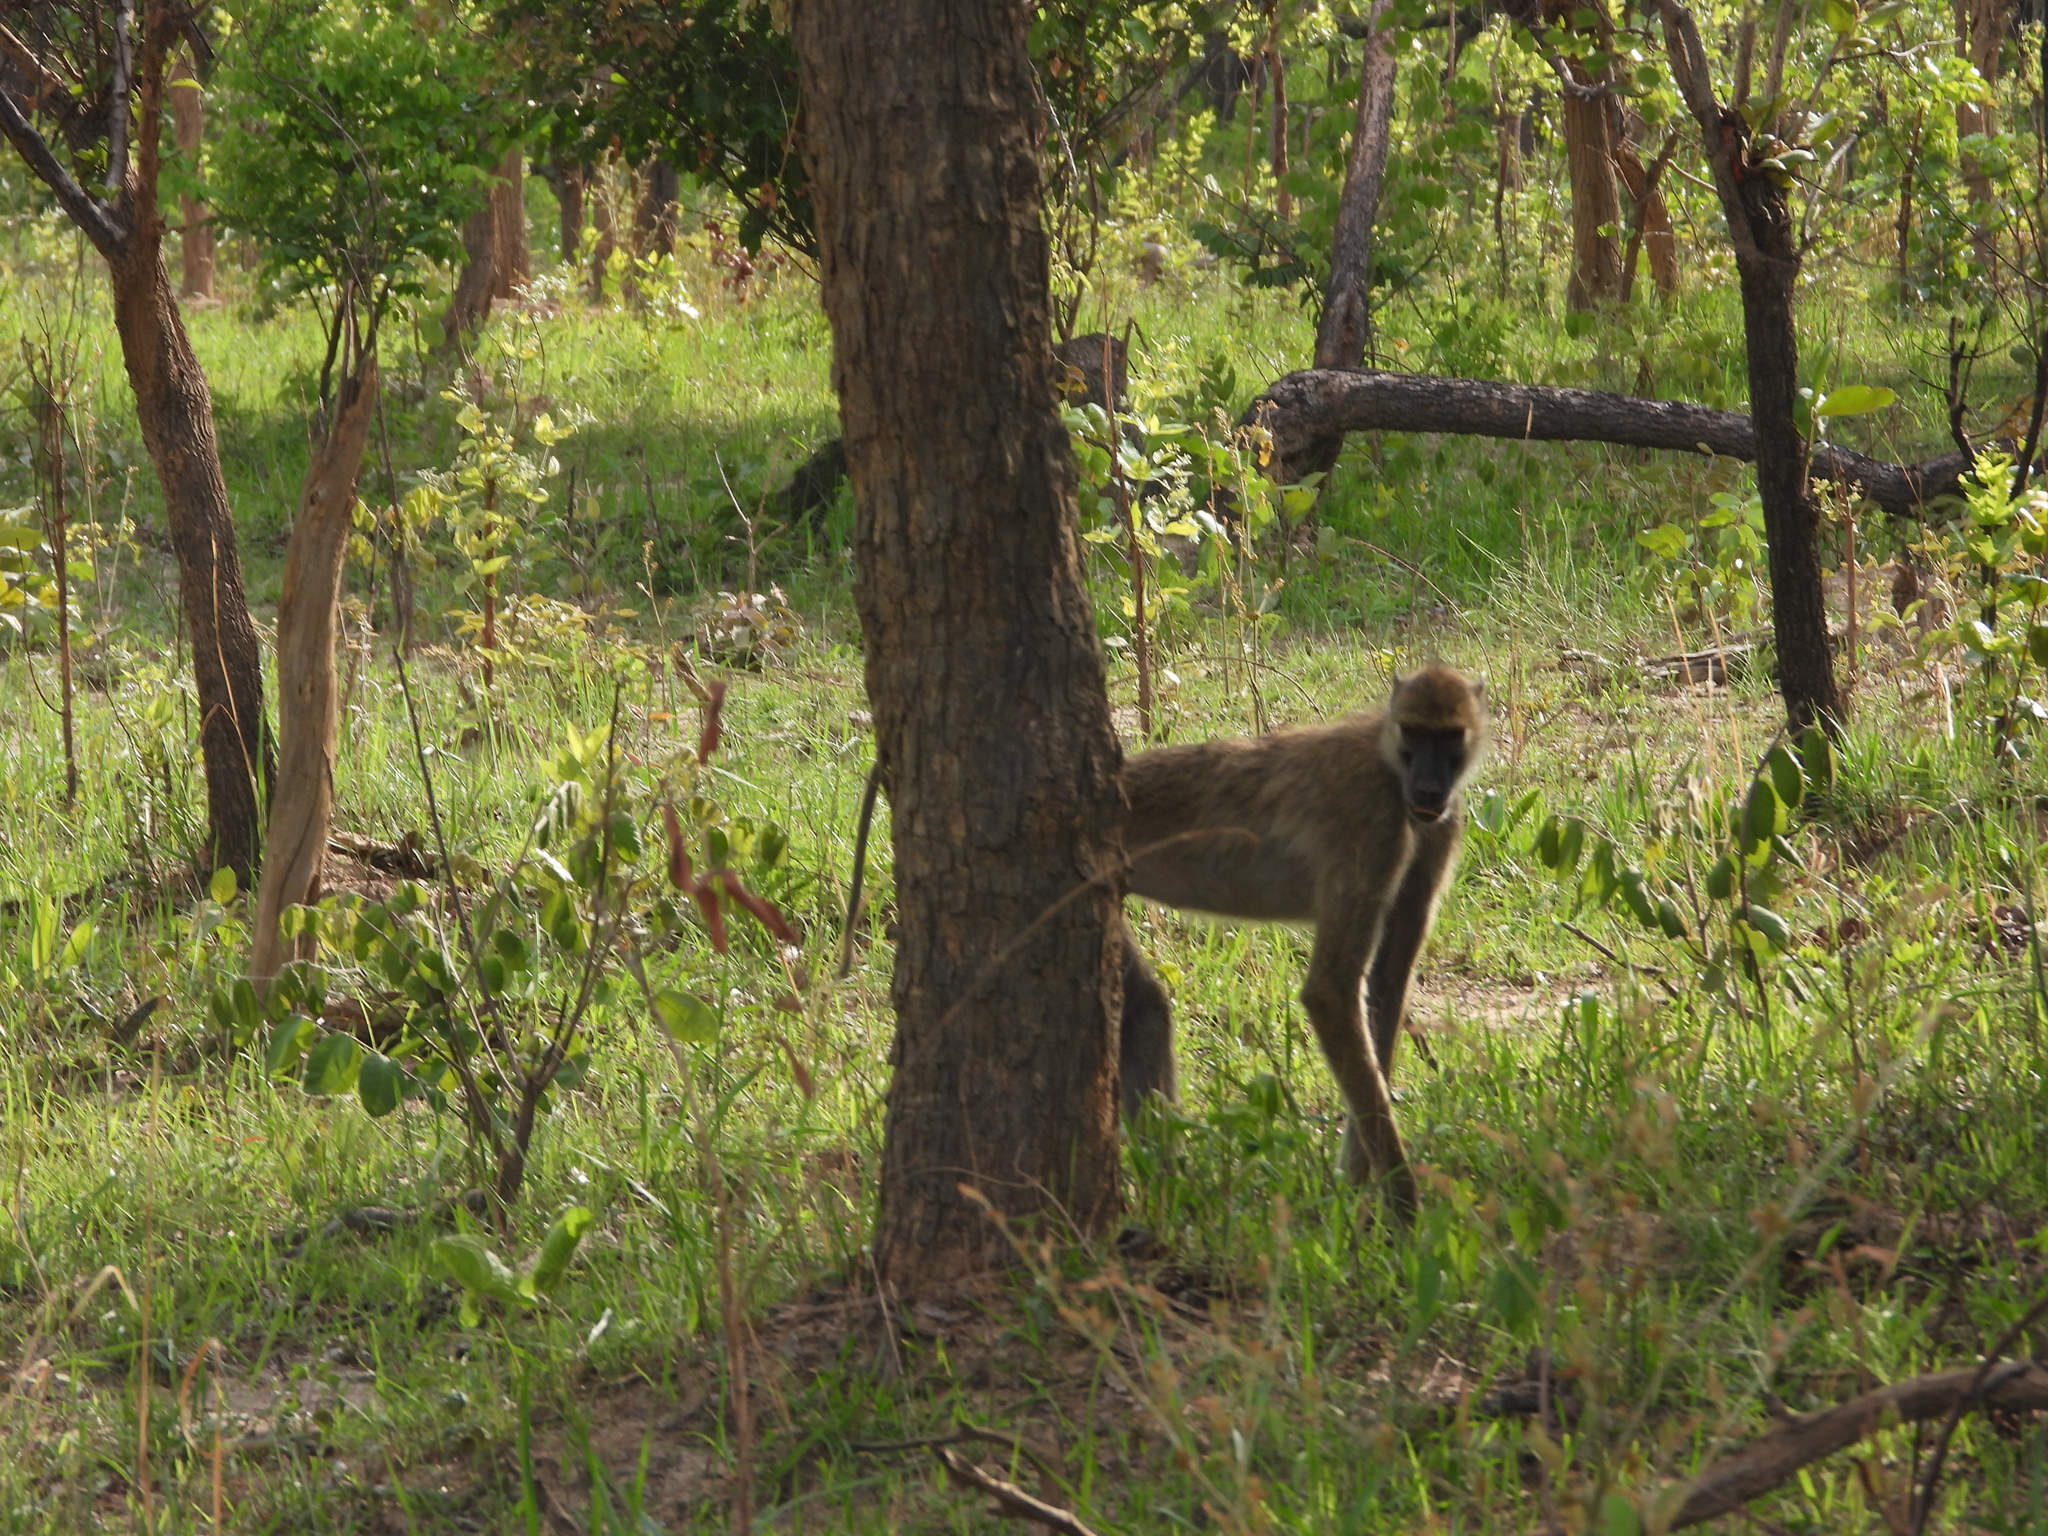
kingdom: Animalia
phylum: Chordata
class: Mammalia
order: Primates
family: Cercopithecidae
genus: Papio
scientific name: Papio kindae
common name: Kinda baboon
